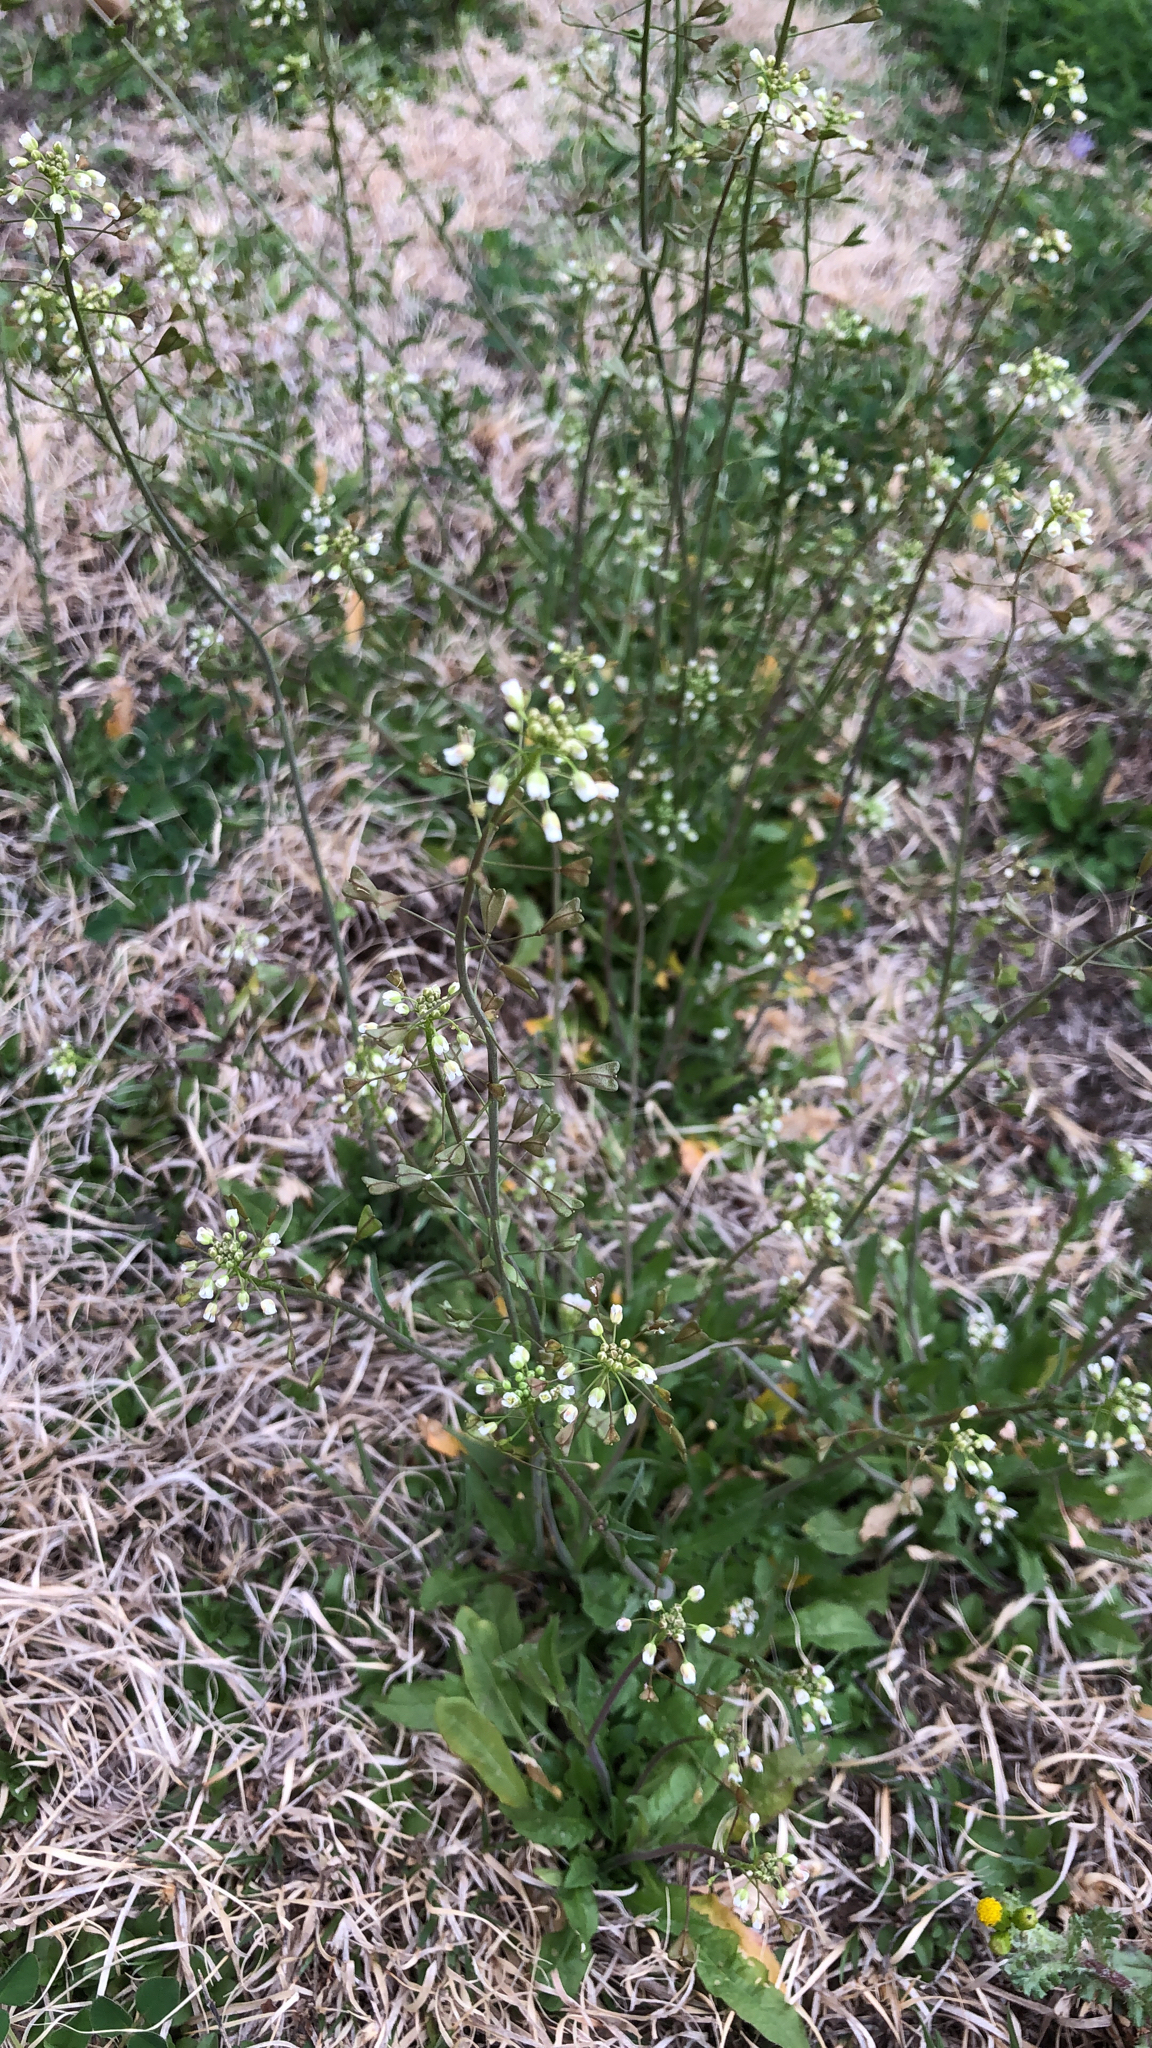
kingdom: Plantae
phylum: Tracheophyta
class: Magnoliopsida
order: Brassicales
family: Brassicaceae
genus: Capsella
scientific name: Capsella bursa-pastoris
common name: Shepherd's purse
